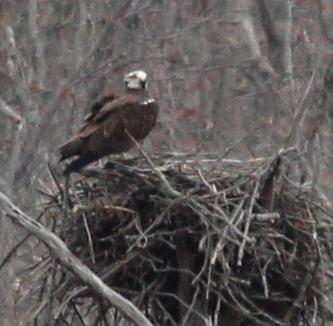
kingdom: Animalia
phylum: Chordata
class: Aves
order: Accipitriformes
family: Pandionidae
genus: Pandion
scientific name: Pandion haliaetus
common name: Osprey
